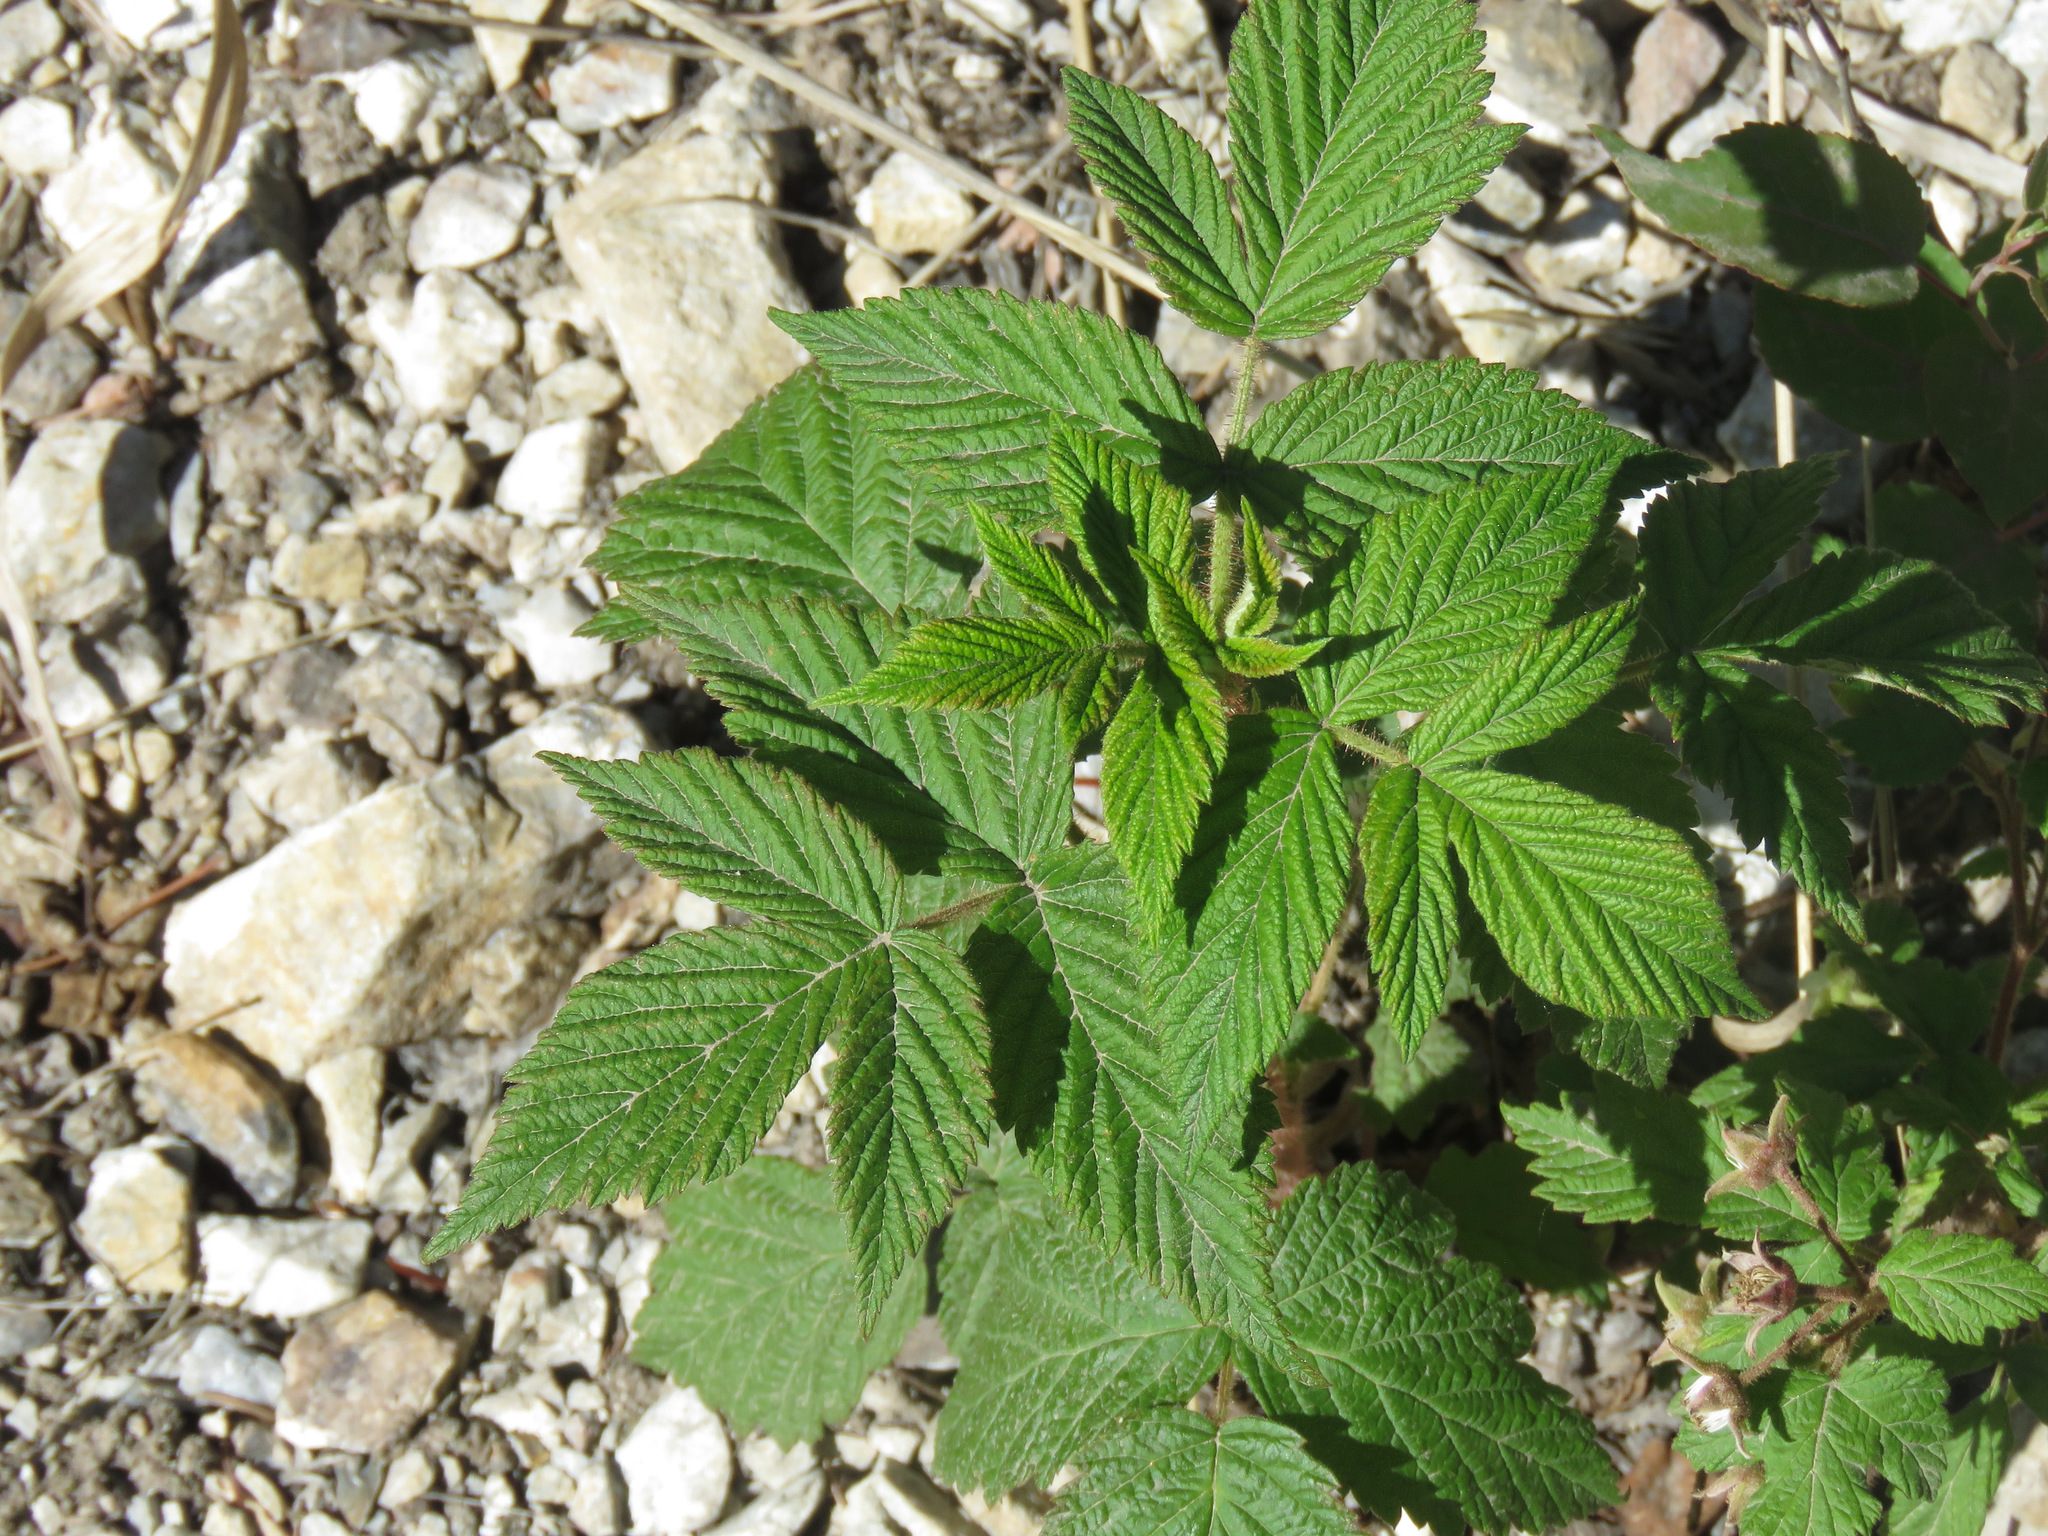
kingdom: Plantae
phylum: Tracheophyta
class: Magnoliopsida
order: Rosales
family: Rosaceae
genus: Rubus
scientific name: Rubus idaeus
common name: Raspberry
